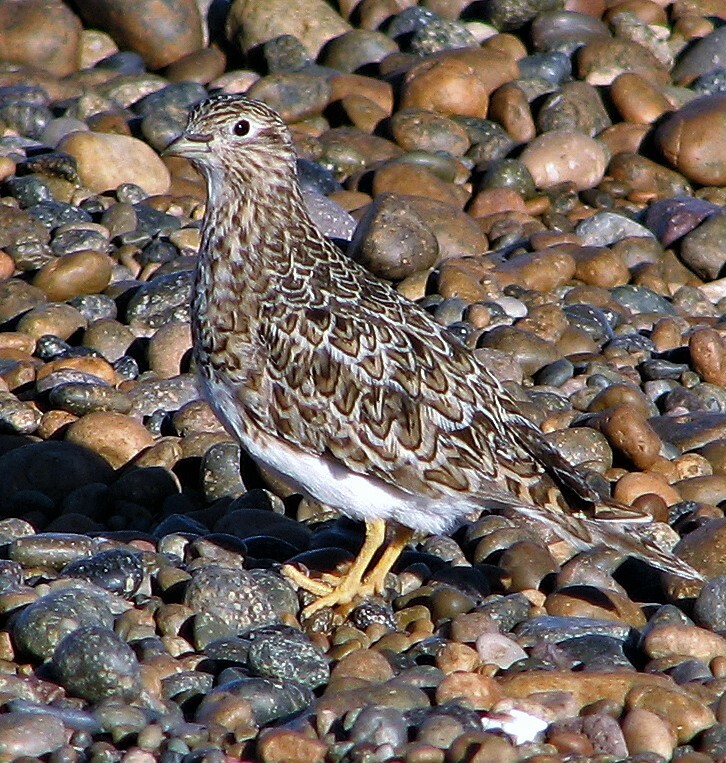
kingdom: Animalia
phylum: Chordata
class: Aves
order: Charadriiformes
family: Thinocoridae
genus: Thinocorus
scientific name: Thinocorus rumicivorus
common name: Least seedsnipe
